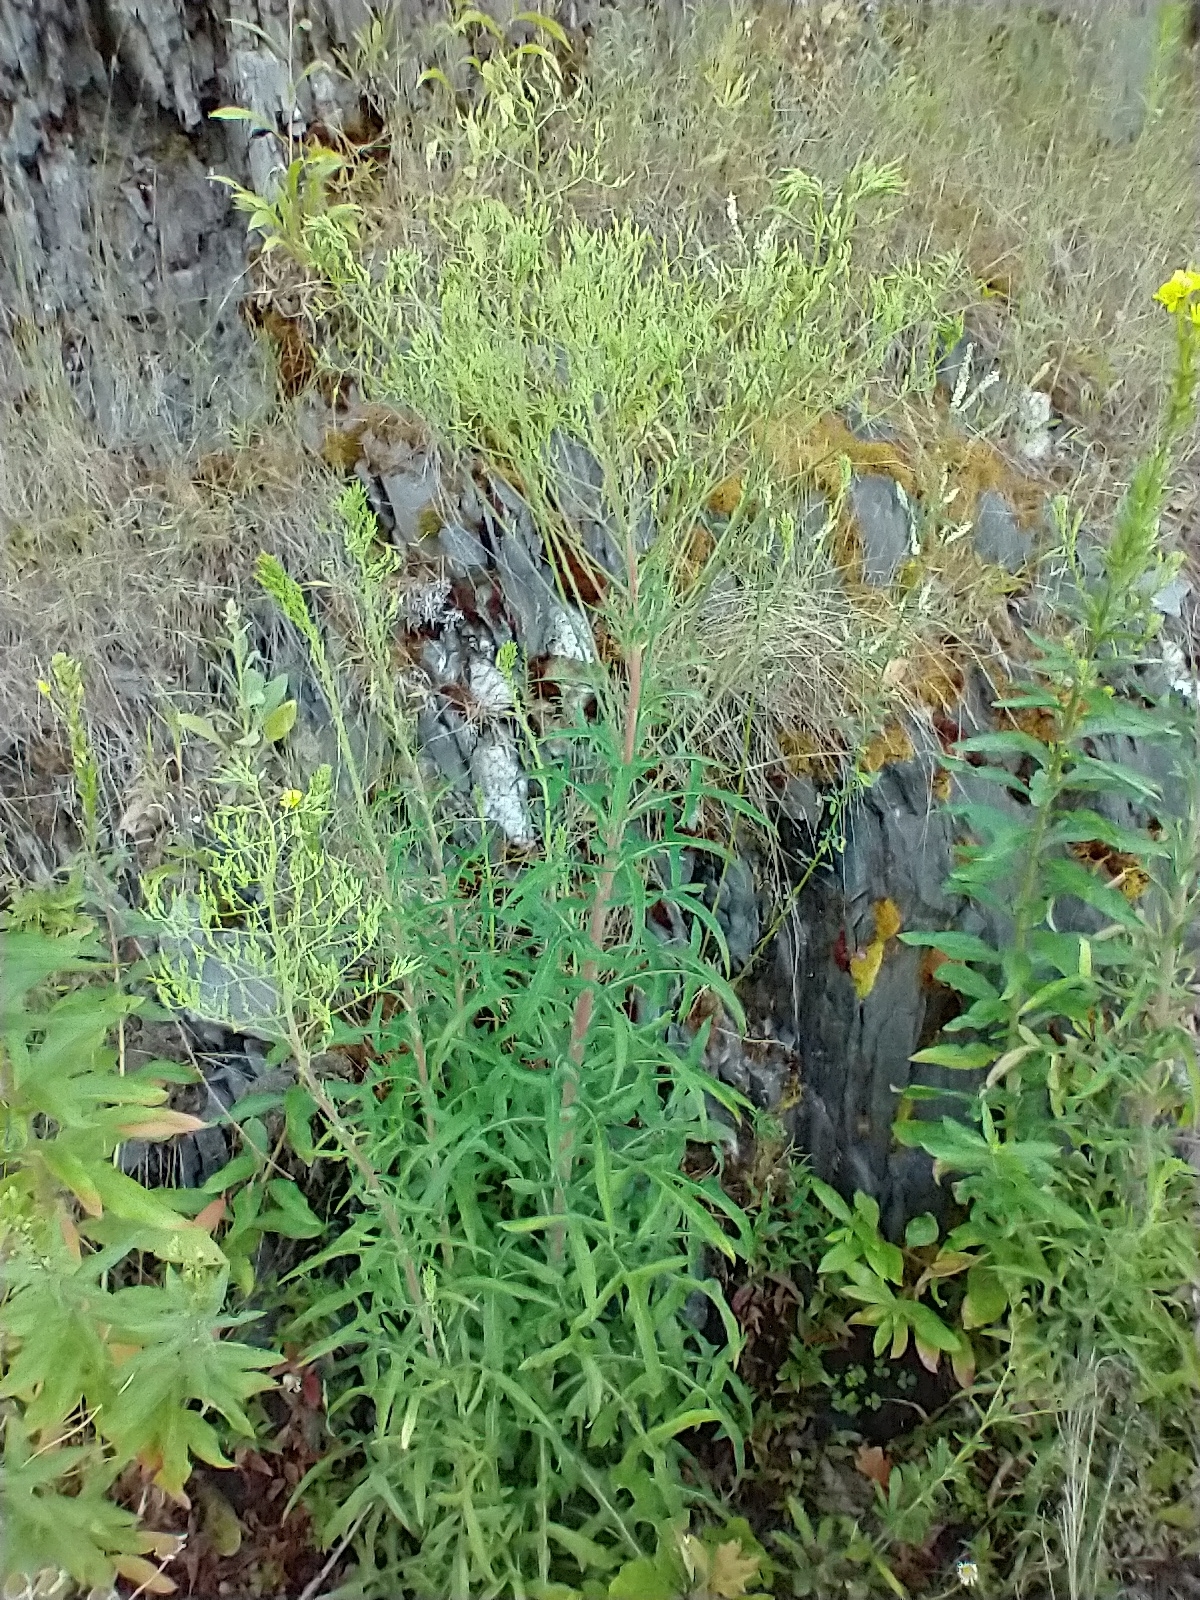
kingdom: Plantae
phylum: Tracheophyta
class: Magnoliopsida
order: Asterales
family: Asteraceae
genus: Lactuca
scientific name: Lactuca canadensis
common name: Canada lettuce
